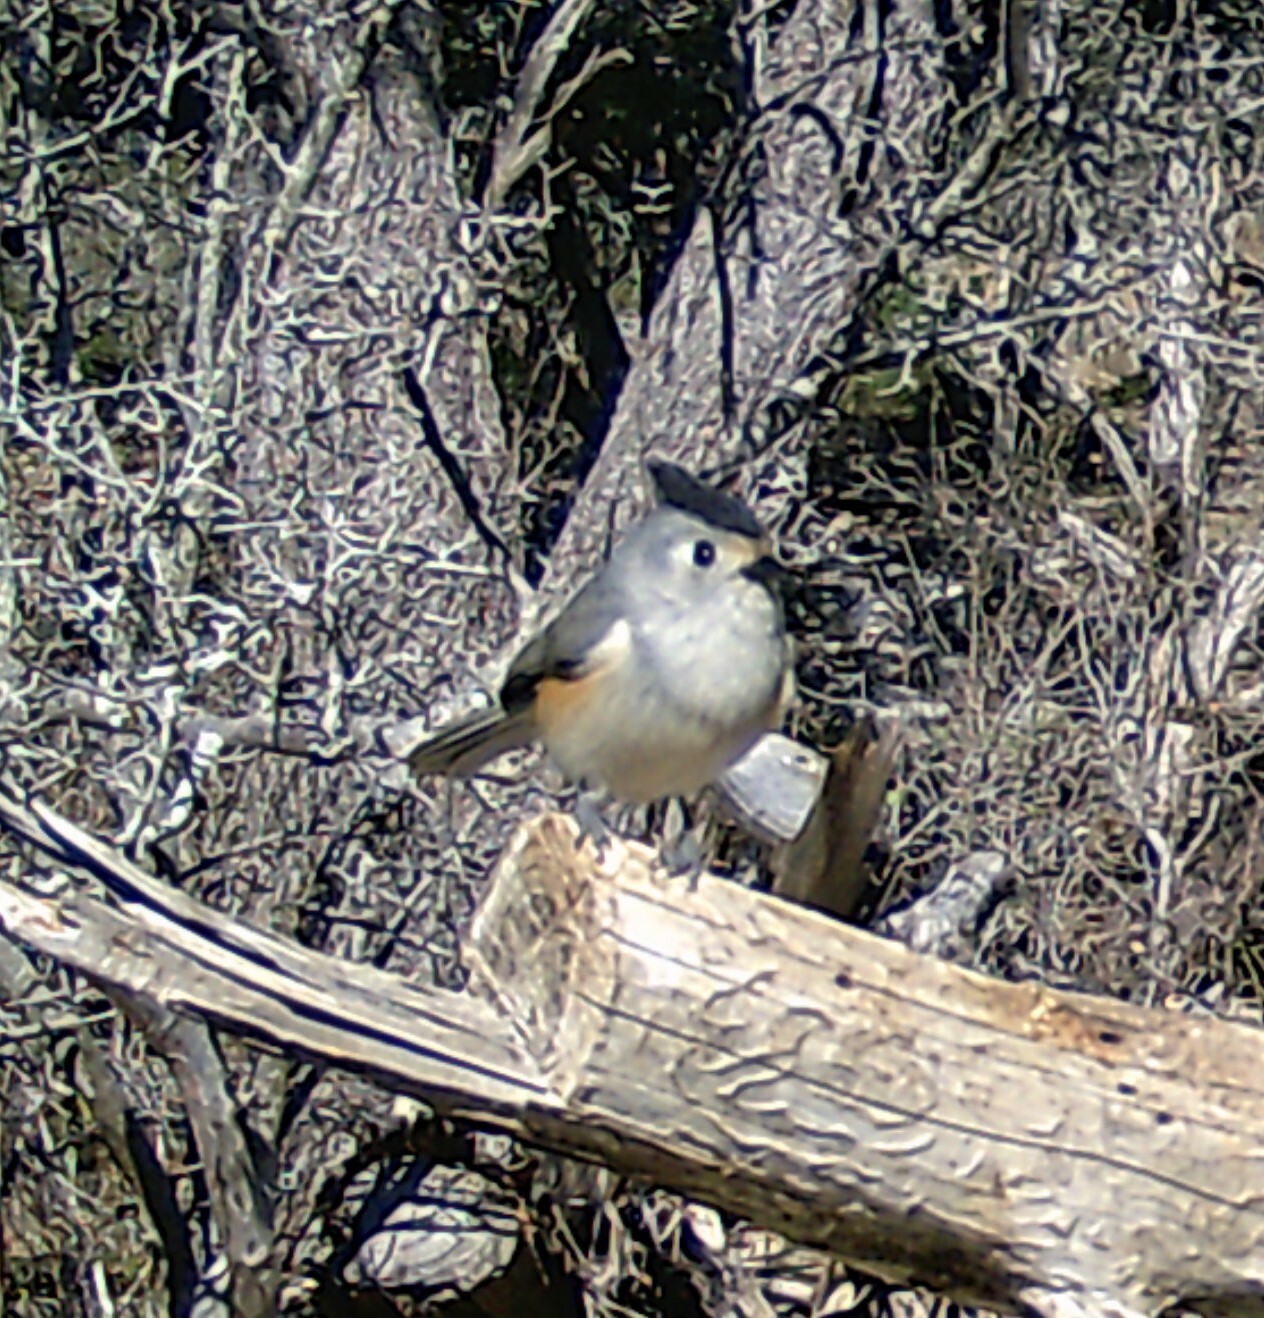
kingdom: Animalia
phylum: Chordata
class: Aves
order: Passeriformes
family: Paridae
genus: Baeolophus
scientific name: Baeolophus atricristatus
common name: Black-crested titmouse
